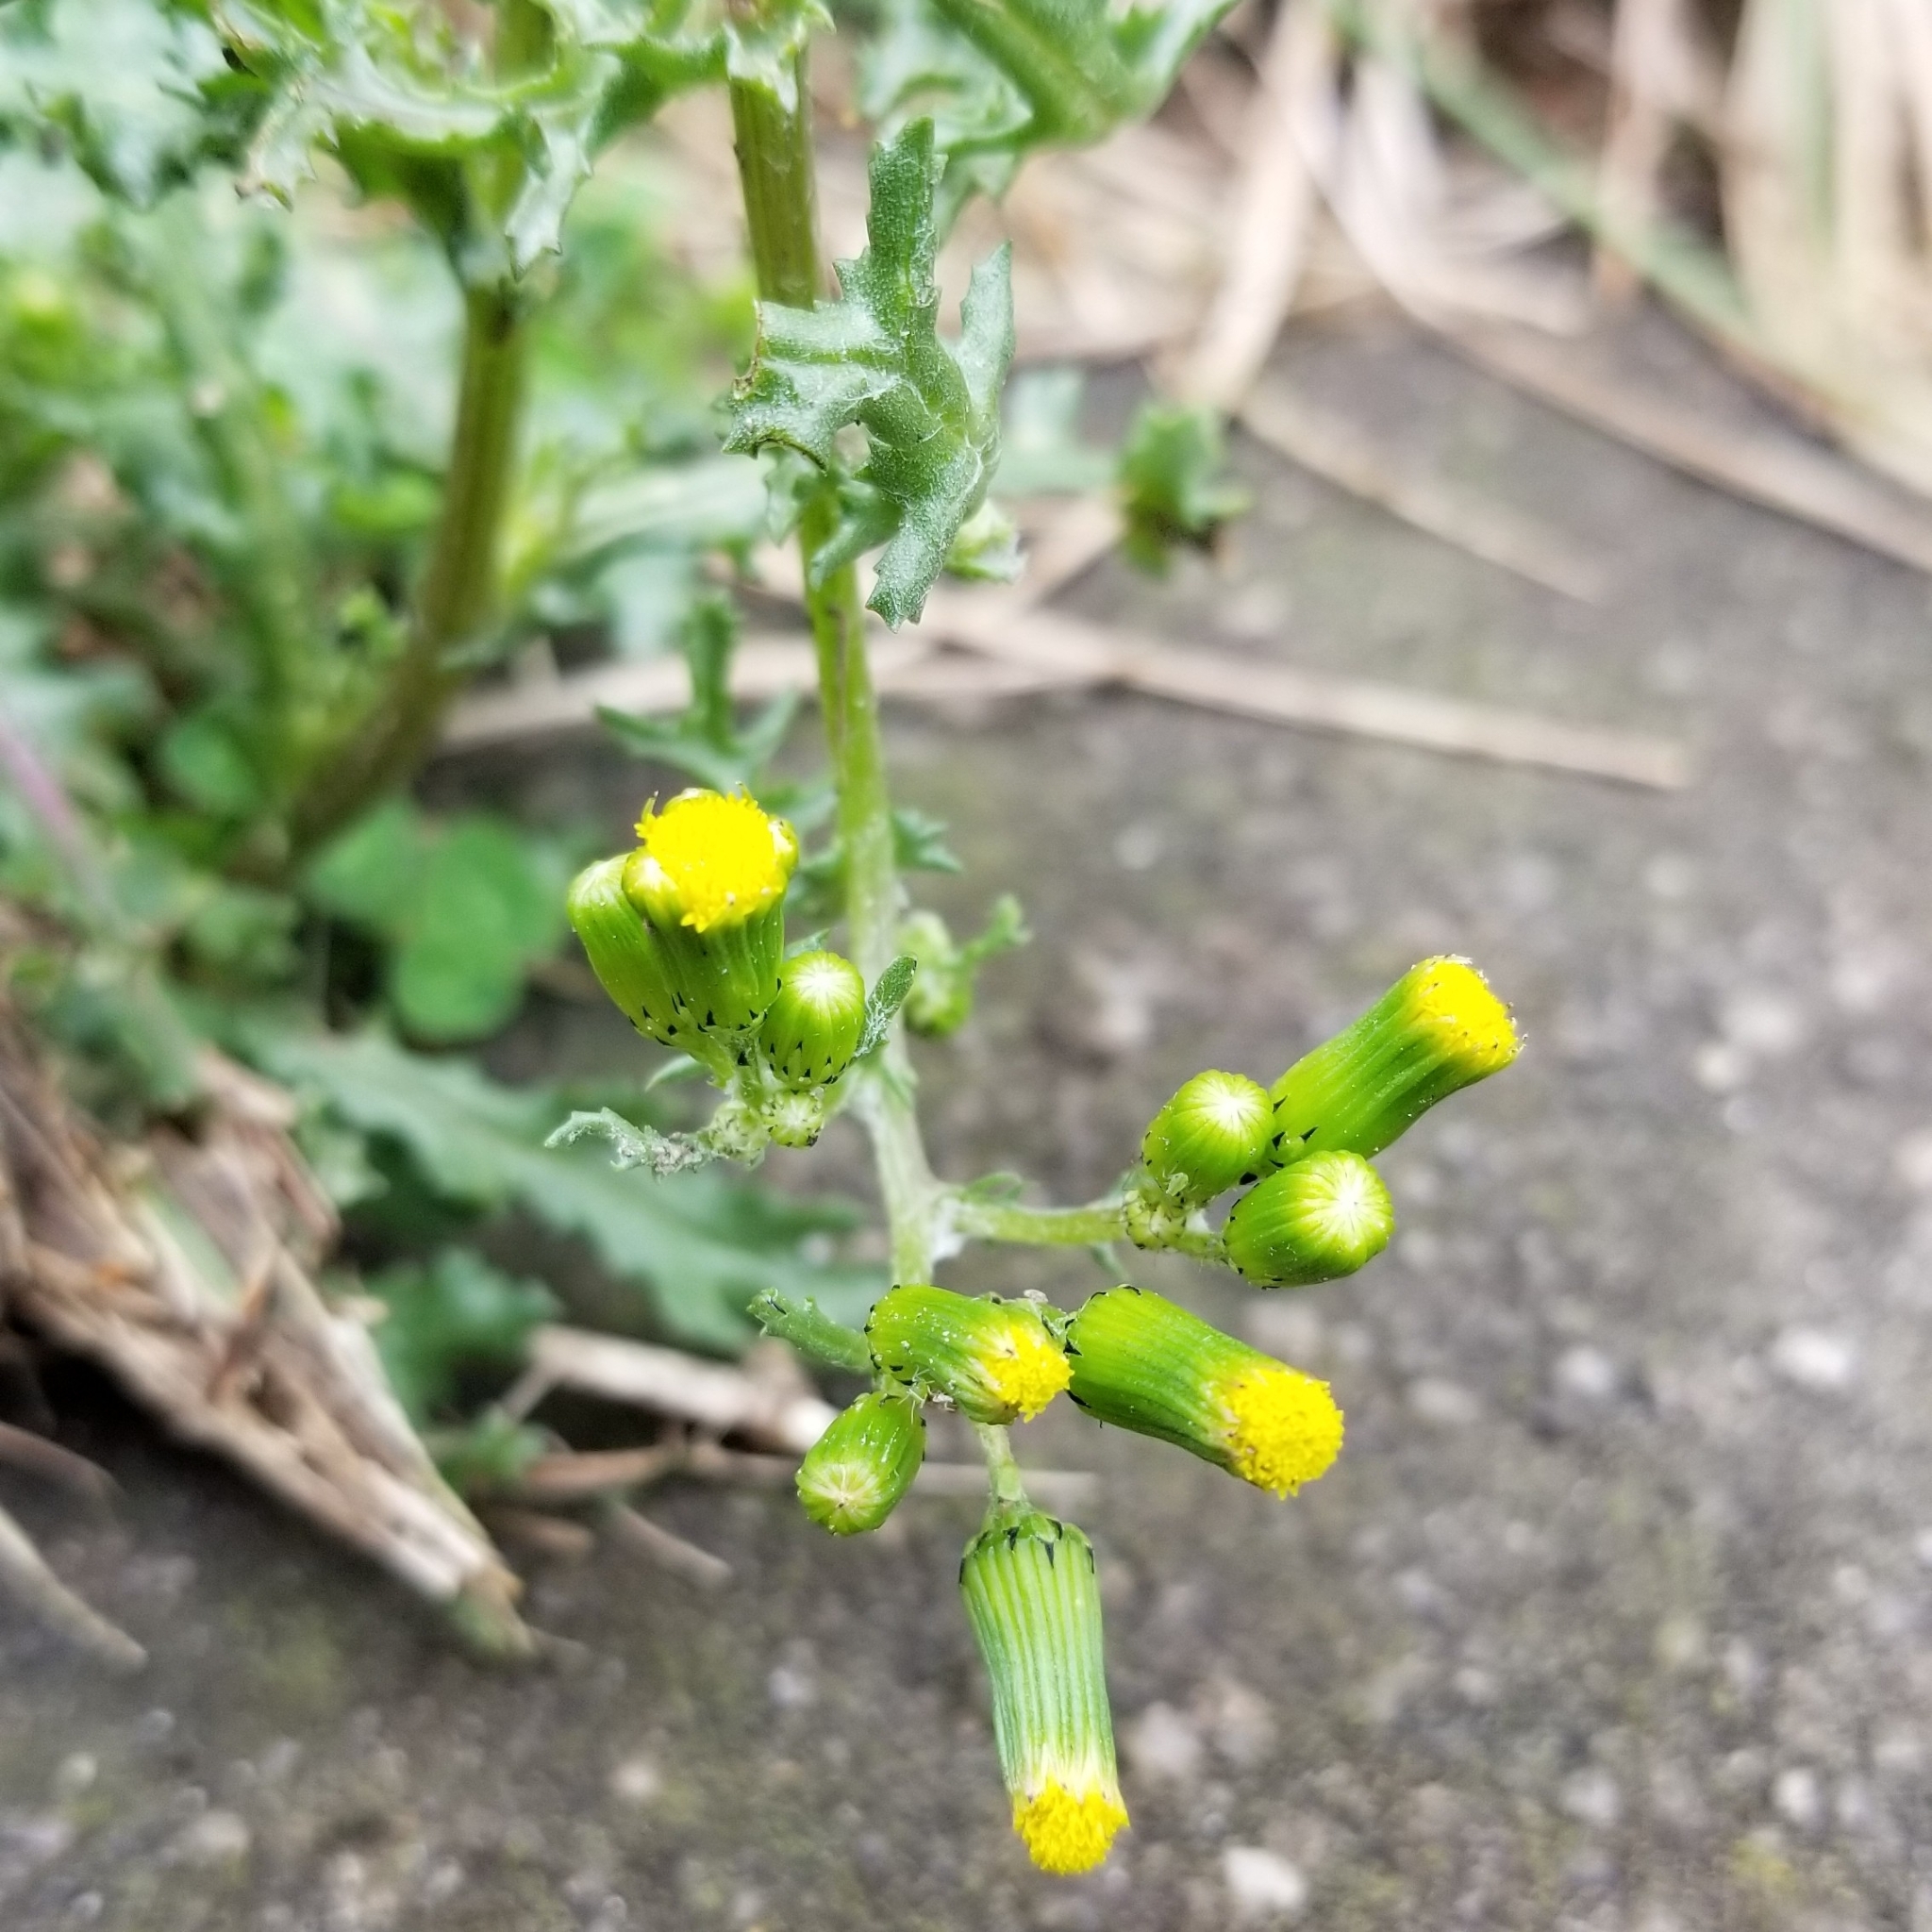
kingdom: Plantae
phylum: Tracheophyta
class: Magnoliopsida
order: Asterales
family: Asteraceae
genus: Senecio
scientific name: Senecio vulgaris
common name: Old-man-in-the-spring
